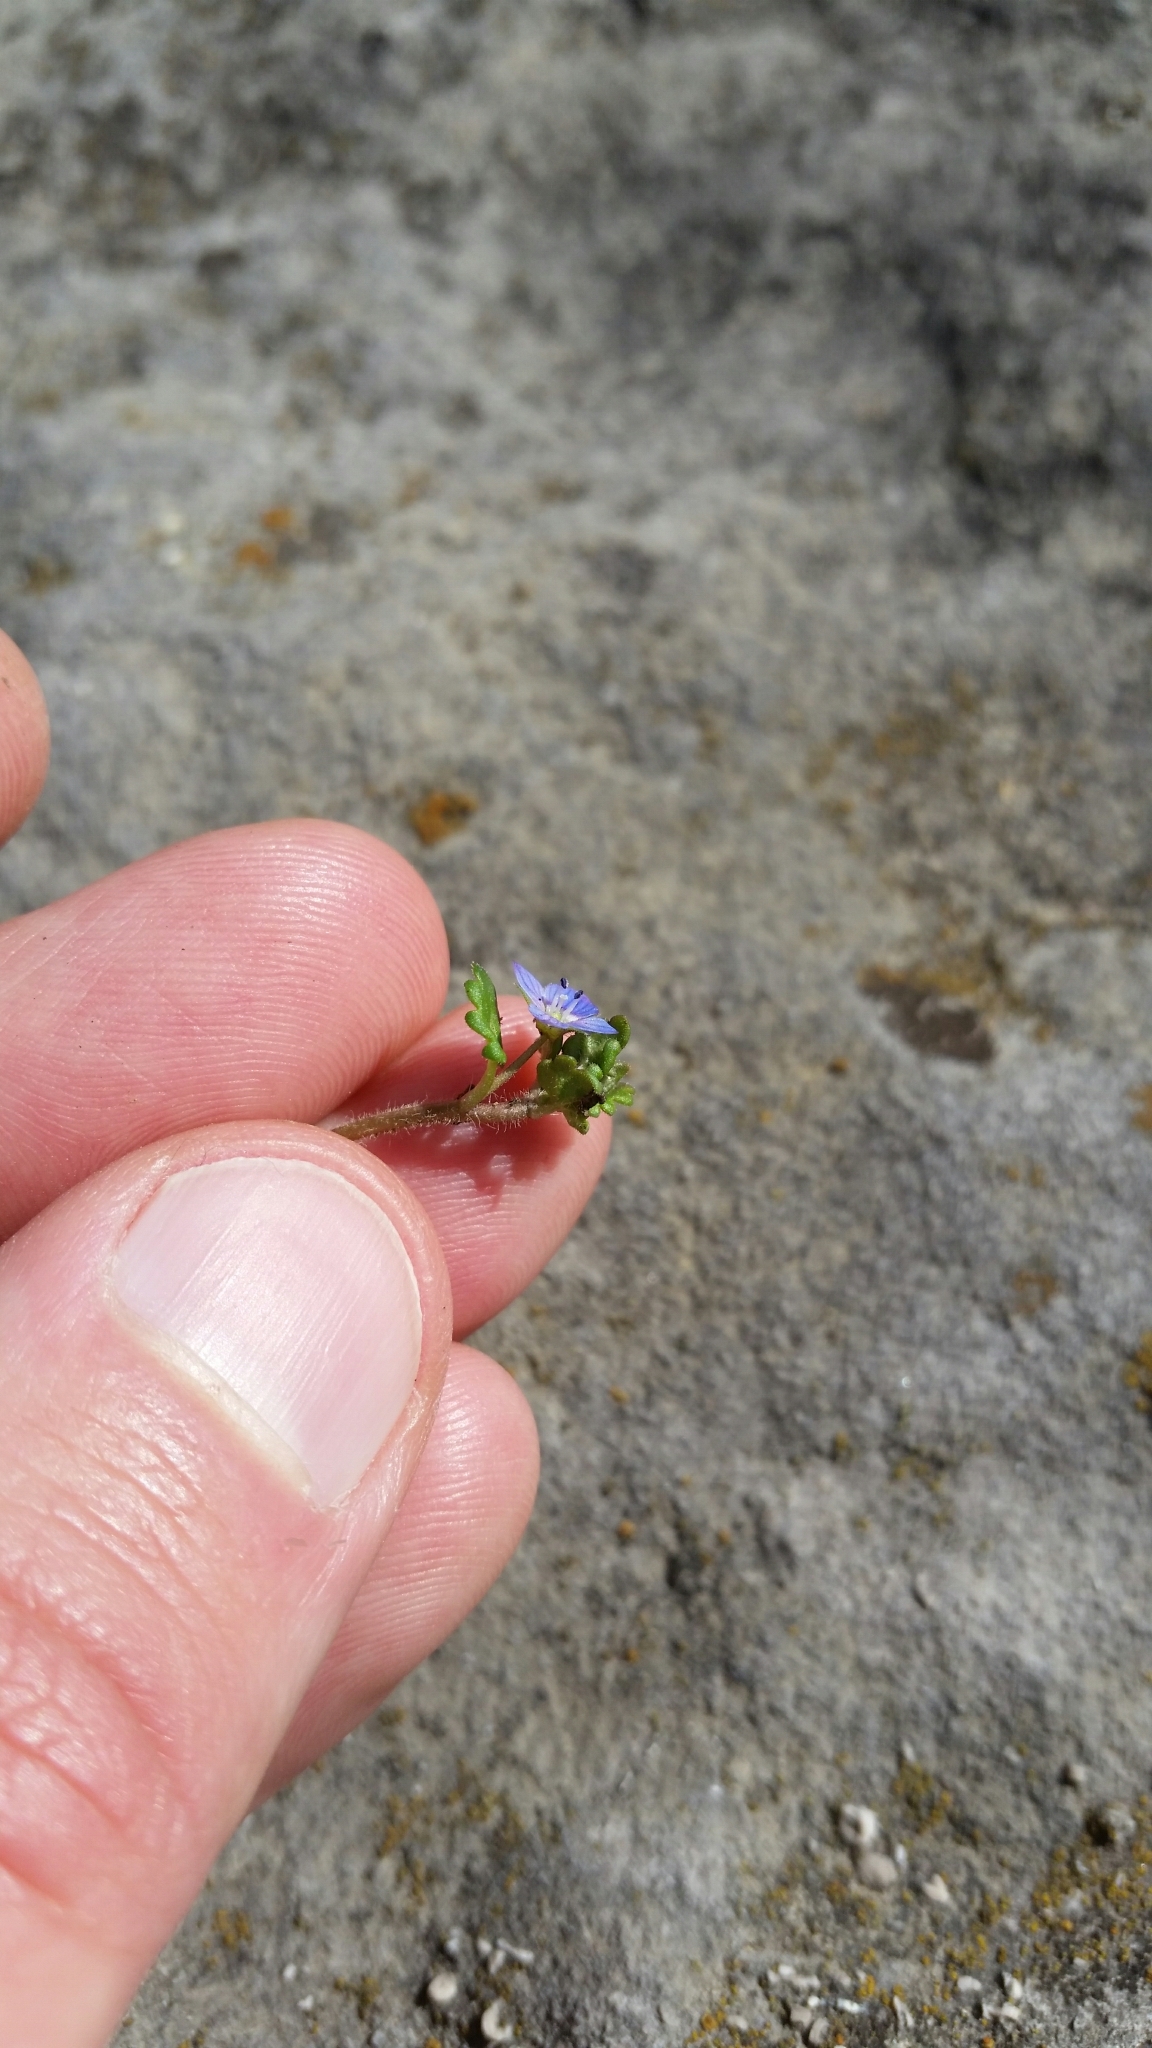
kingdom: Plantae
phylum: Tracheophyta
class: Magnoliopsida
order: Lamiales
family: Plantaginaceae
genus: Veronica
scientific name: Veronica polita
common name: Grey field-speedwell
